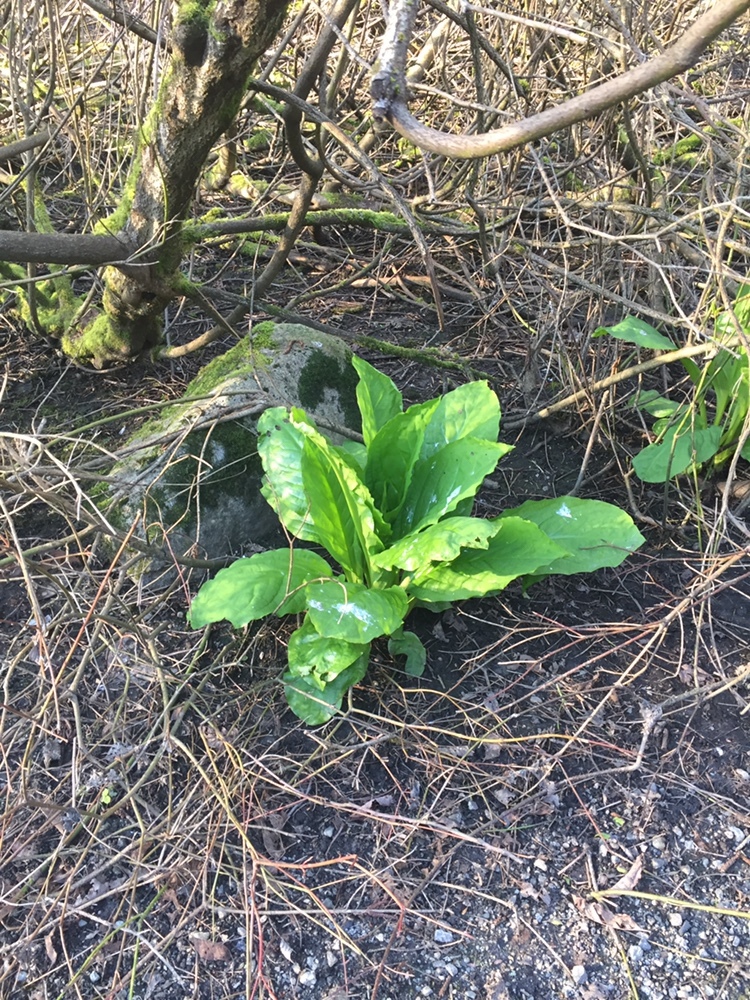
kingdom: Plantae
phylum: Tracheophyta
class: Liliopsida
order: Alismatales
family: Araceae
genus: Lysichiton
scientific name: Lysichiton americanus
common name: American skunk cabbage
